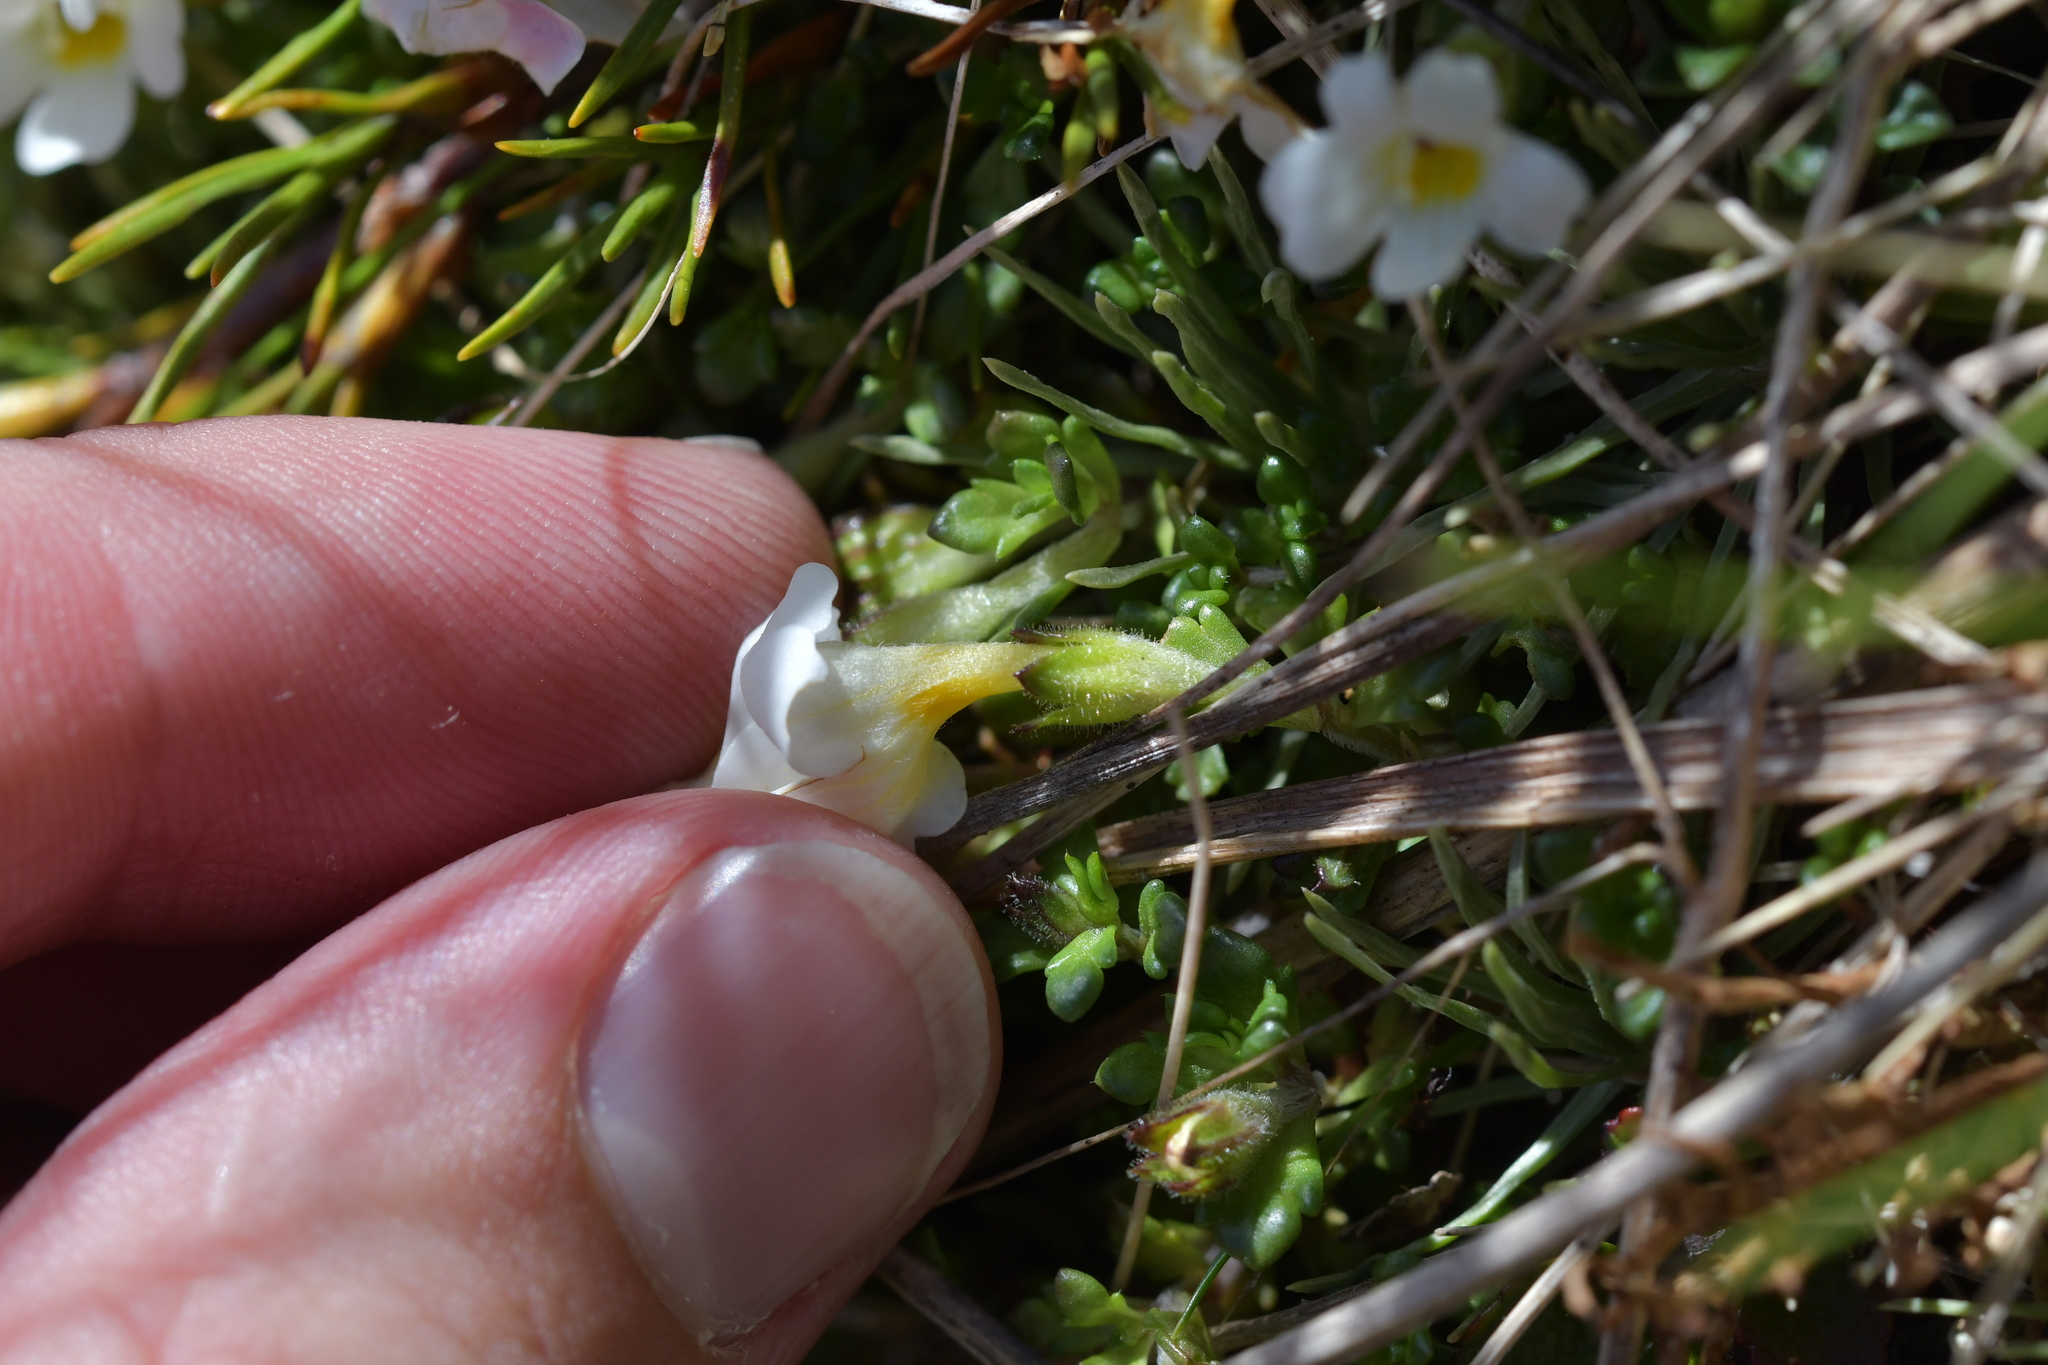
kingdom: Plantae
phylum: Tracheophyta
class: Magnoliopsida
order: Lamiales
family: Orobanchaceae
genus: Euphrasia
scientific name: Euphrasia petriei
